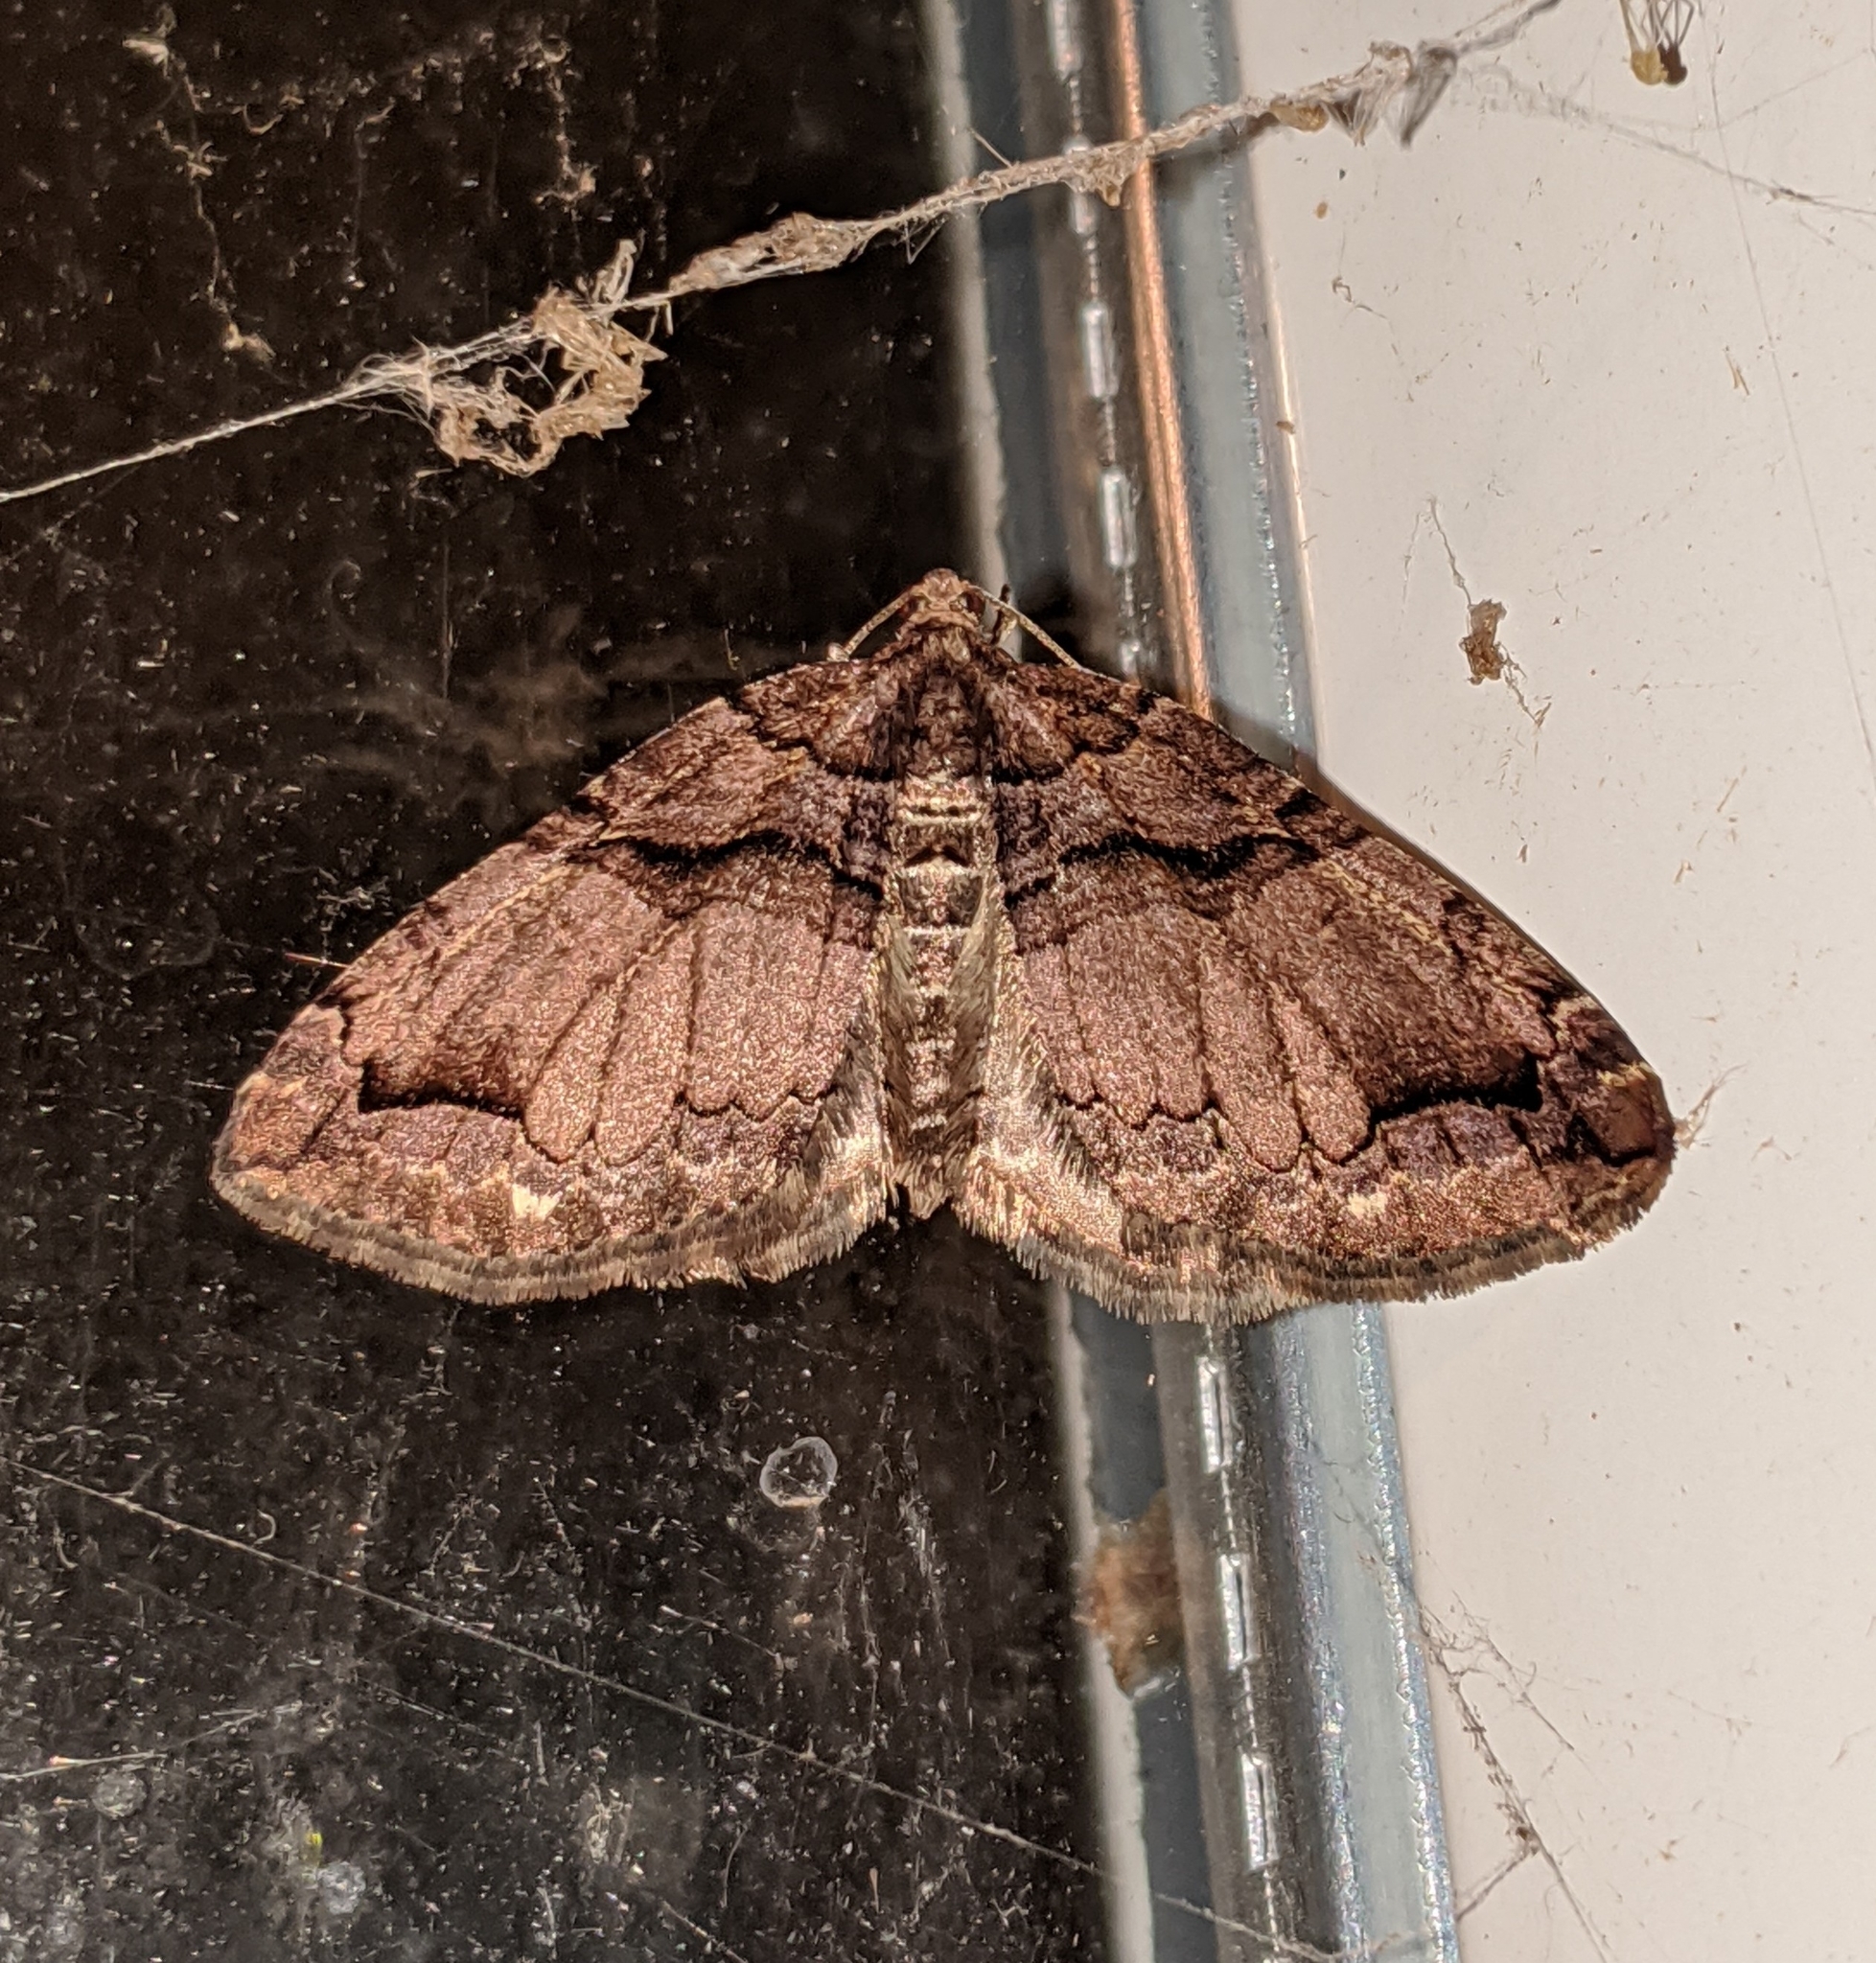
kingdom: Animalia
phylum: Arthropoda
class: Insecta
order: Lepidoptera
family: Geometridae
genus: Anticlea
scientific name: Anticlea vasiliata
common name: Variable carpet
